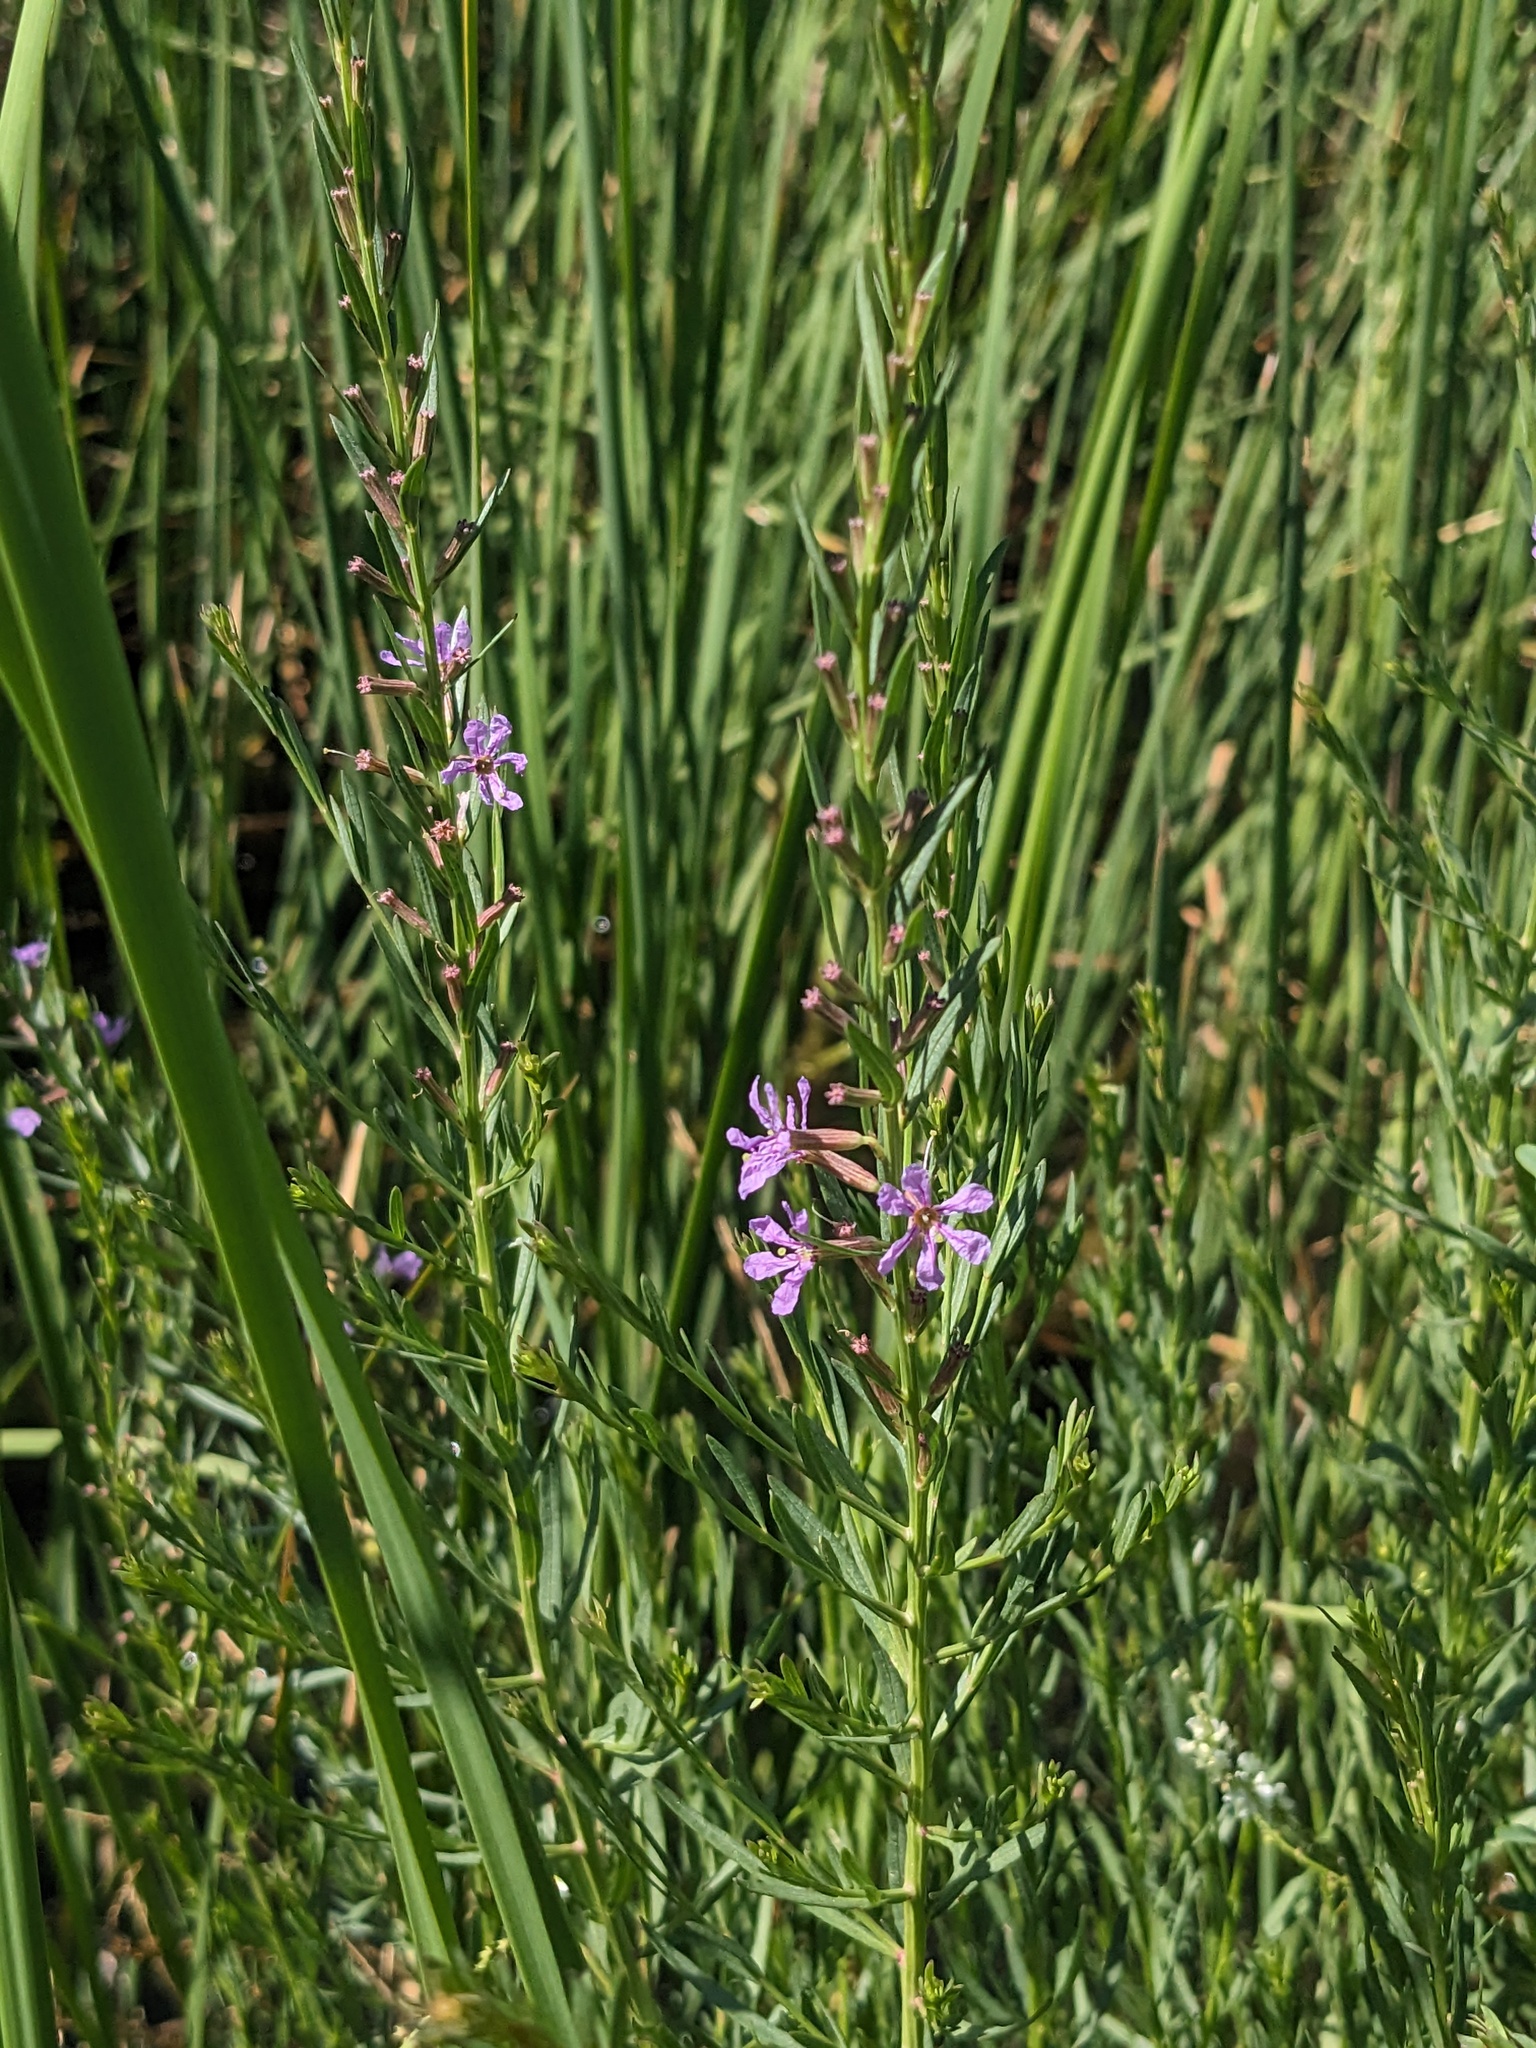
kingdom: Plantae
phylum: Tracheophyta
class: Magnoliopsida
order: Myrtales
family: Lythraceae
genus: Lythrum
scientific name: Lythrum californicum
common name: California loosestrife
